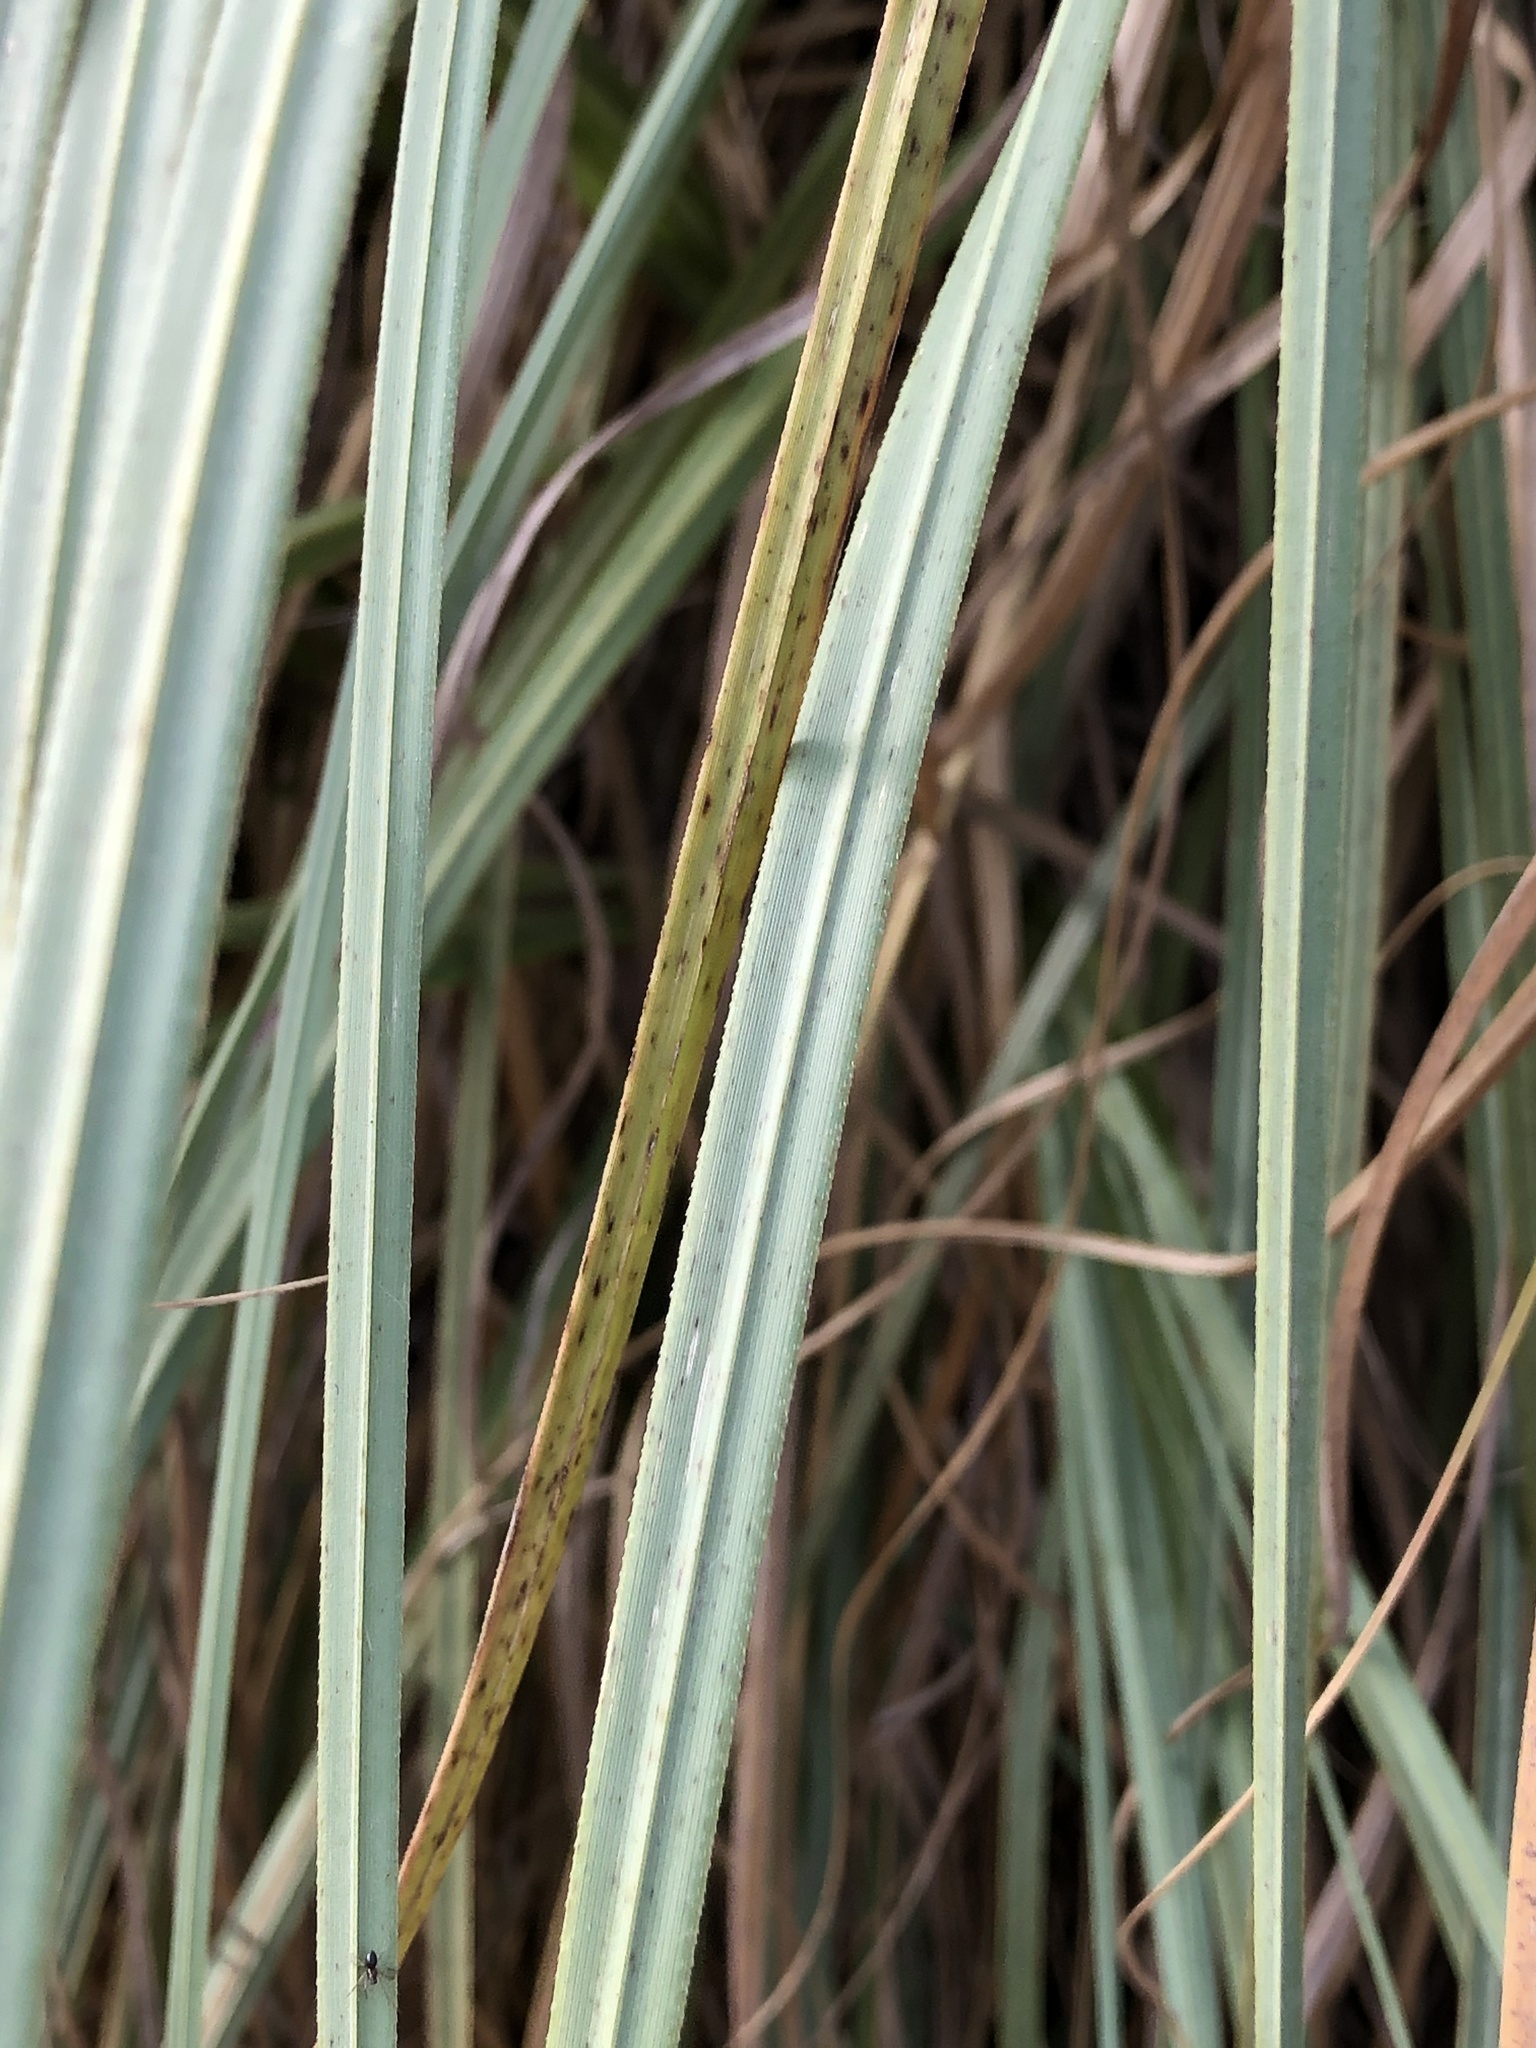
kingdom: Plantae
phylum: Tracheophyta
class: Liliopsida
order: Poales
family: Poaceae
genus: Cortaderia
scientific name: Cortaderia selloana
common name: Uruguayan pampas grass
